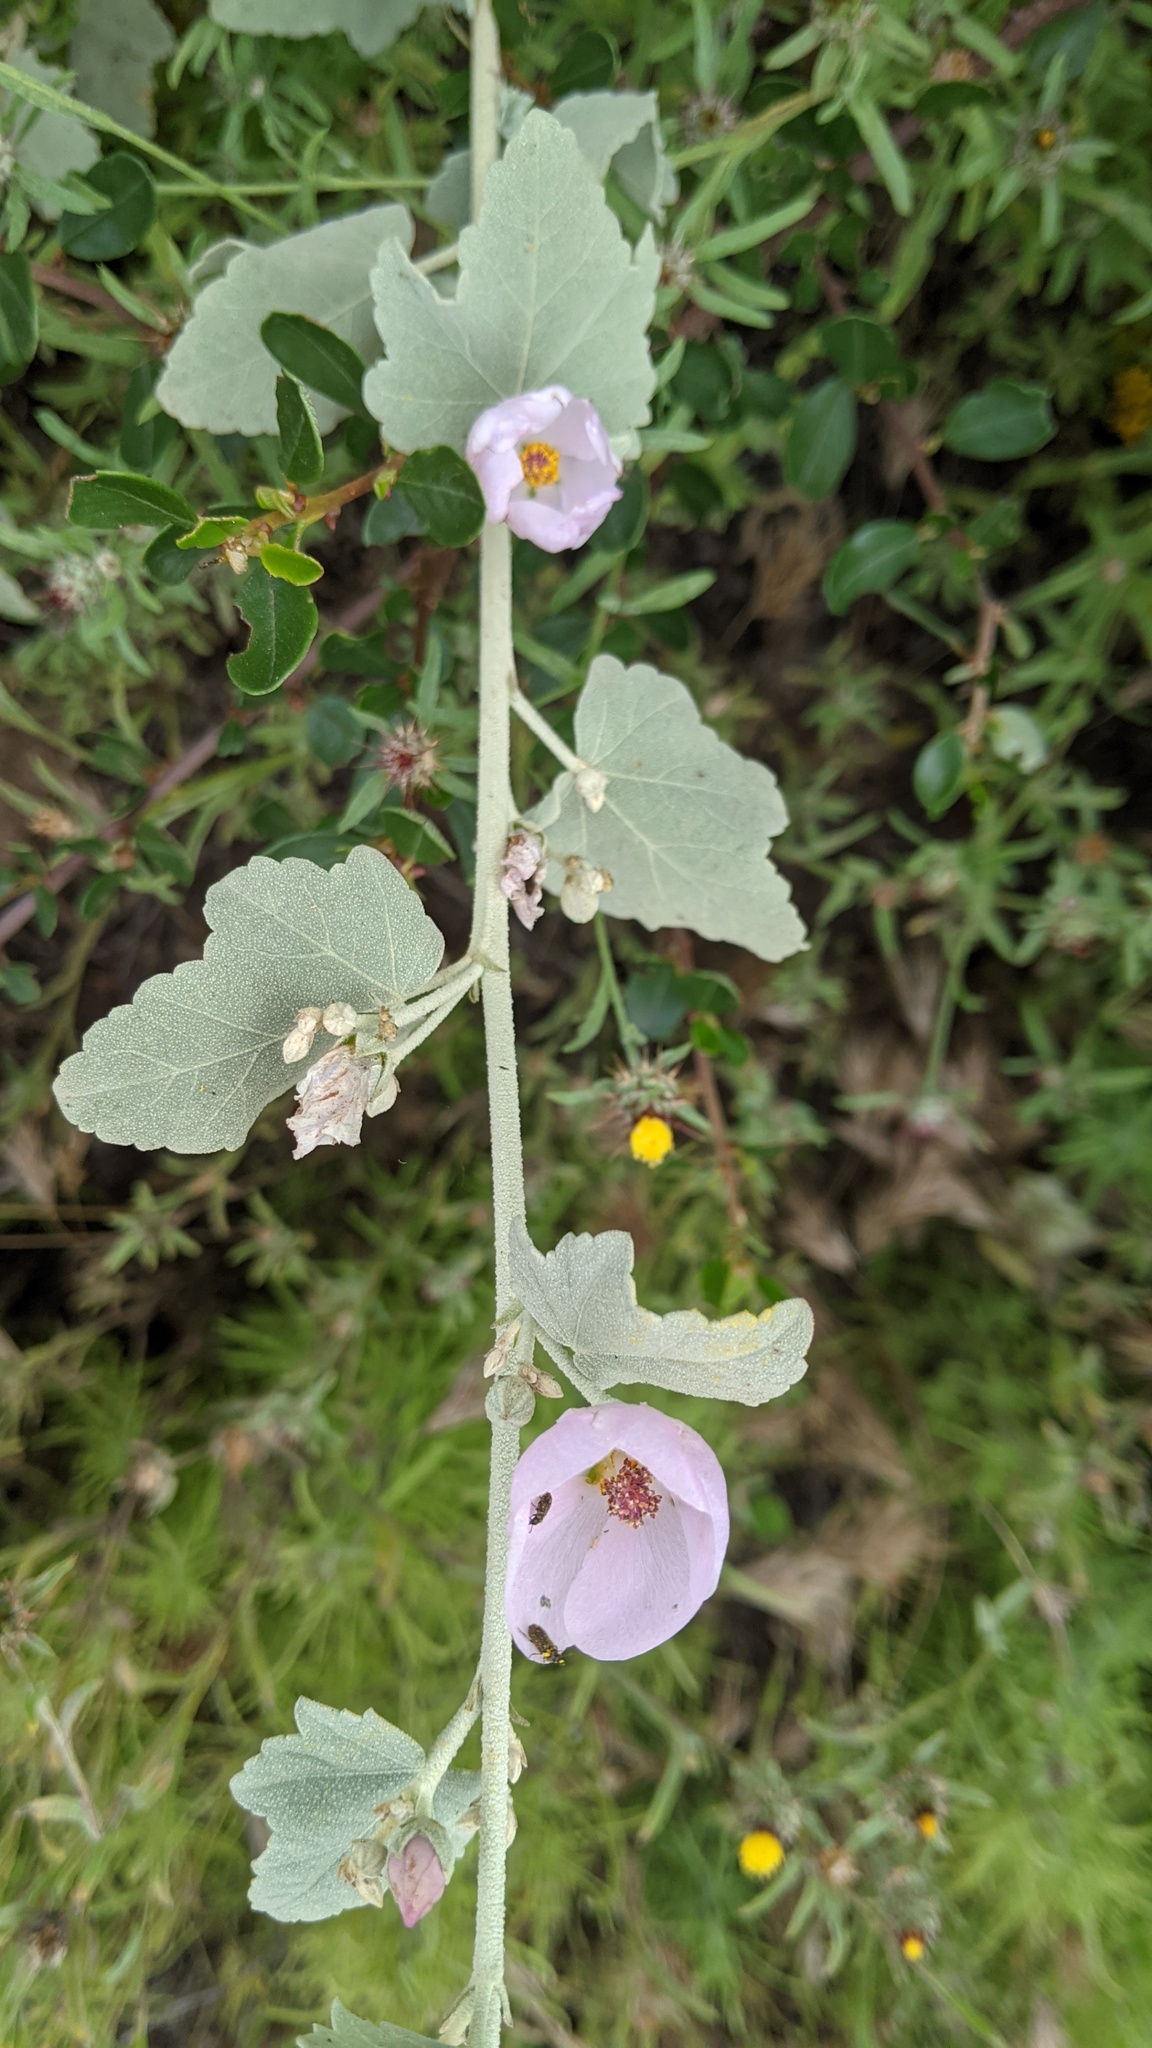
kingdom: Plantae
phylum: Tracheophyta
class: Magnoliopsida
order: Malvales
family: Malvaceae
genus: Malacothamnus
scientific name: Malacothamnus fasciculatus
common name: Sant cruz island bush-mallow
